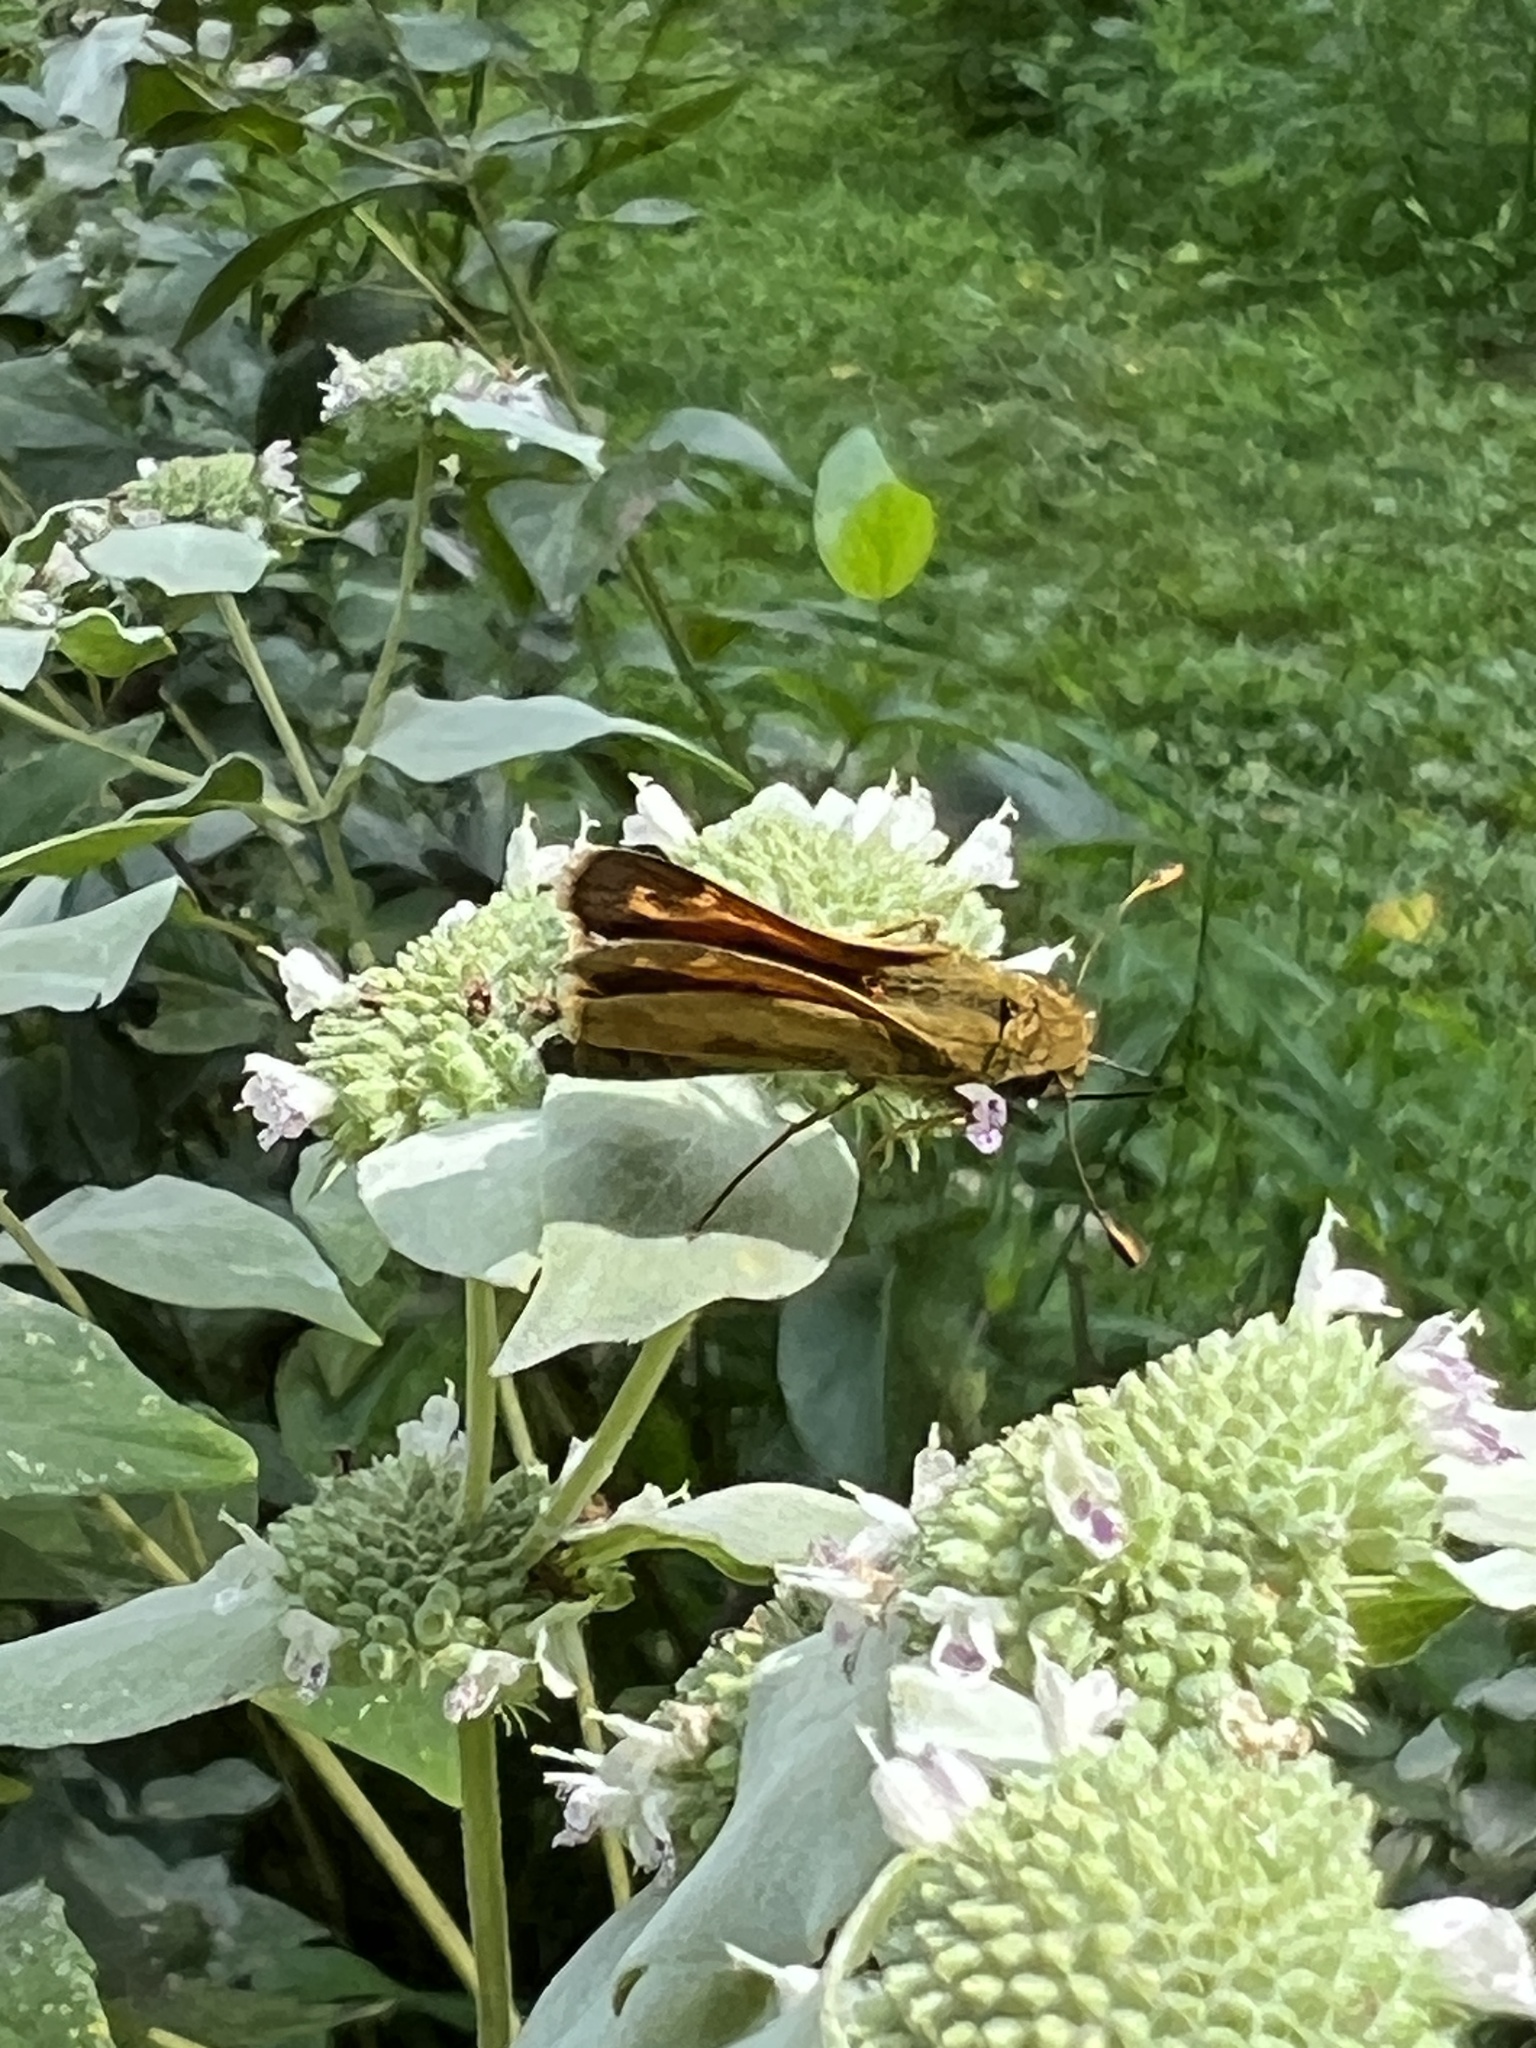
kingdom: Animalia
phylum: Arthropoda
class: Insecta
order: Lepidoptera
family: Hesperiidae
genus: Atalopedes
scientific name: Atalopedes
